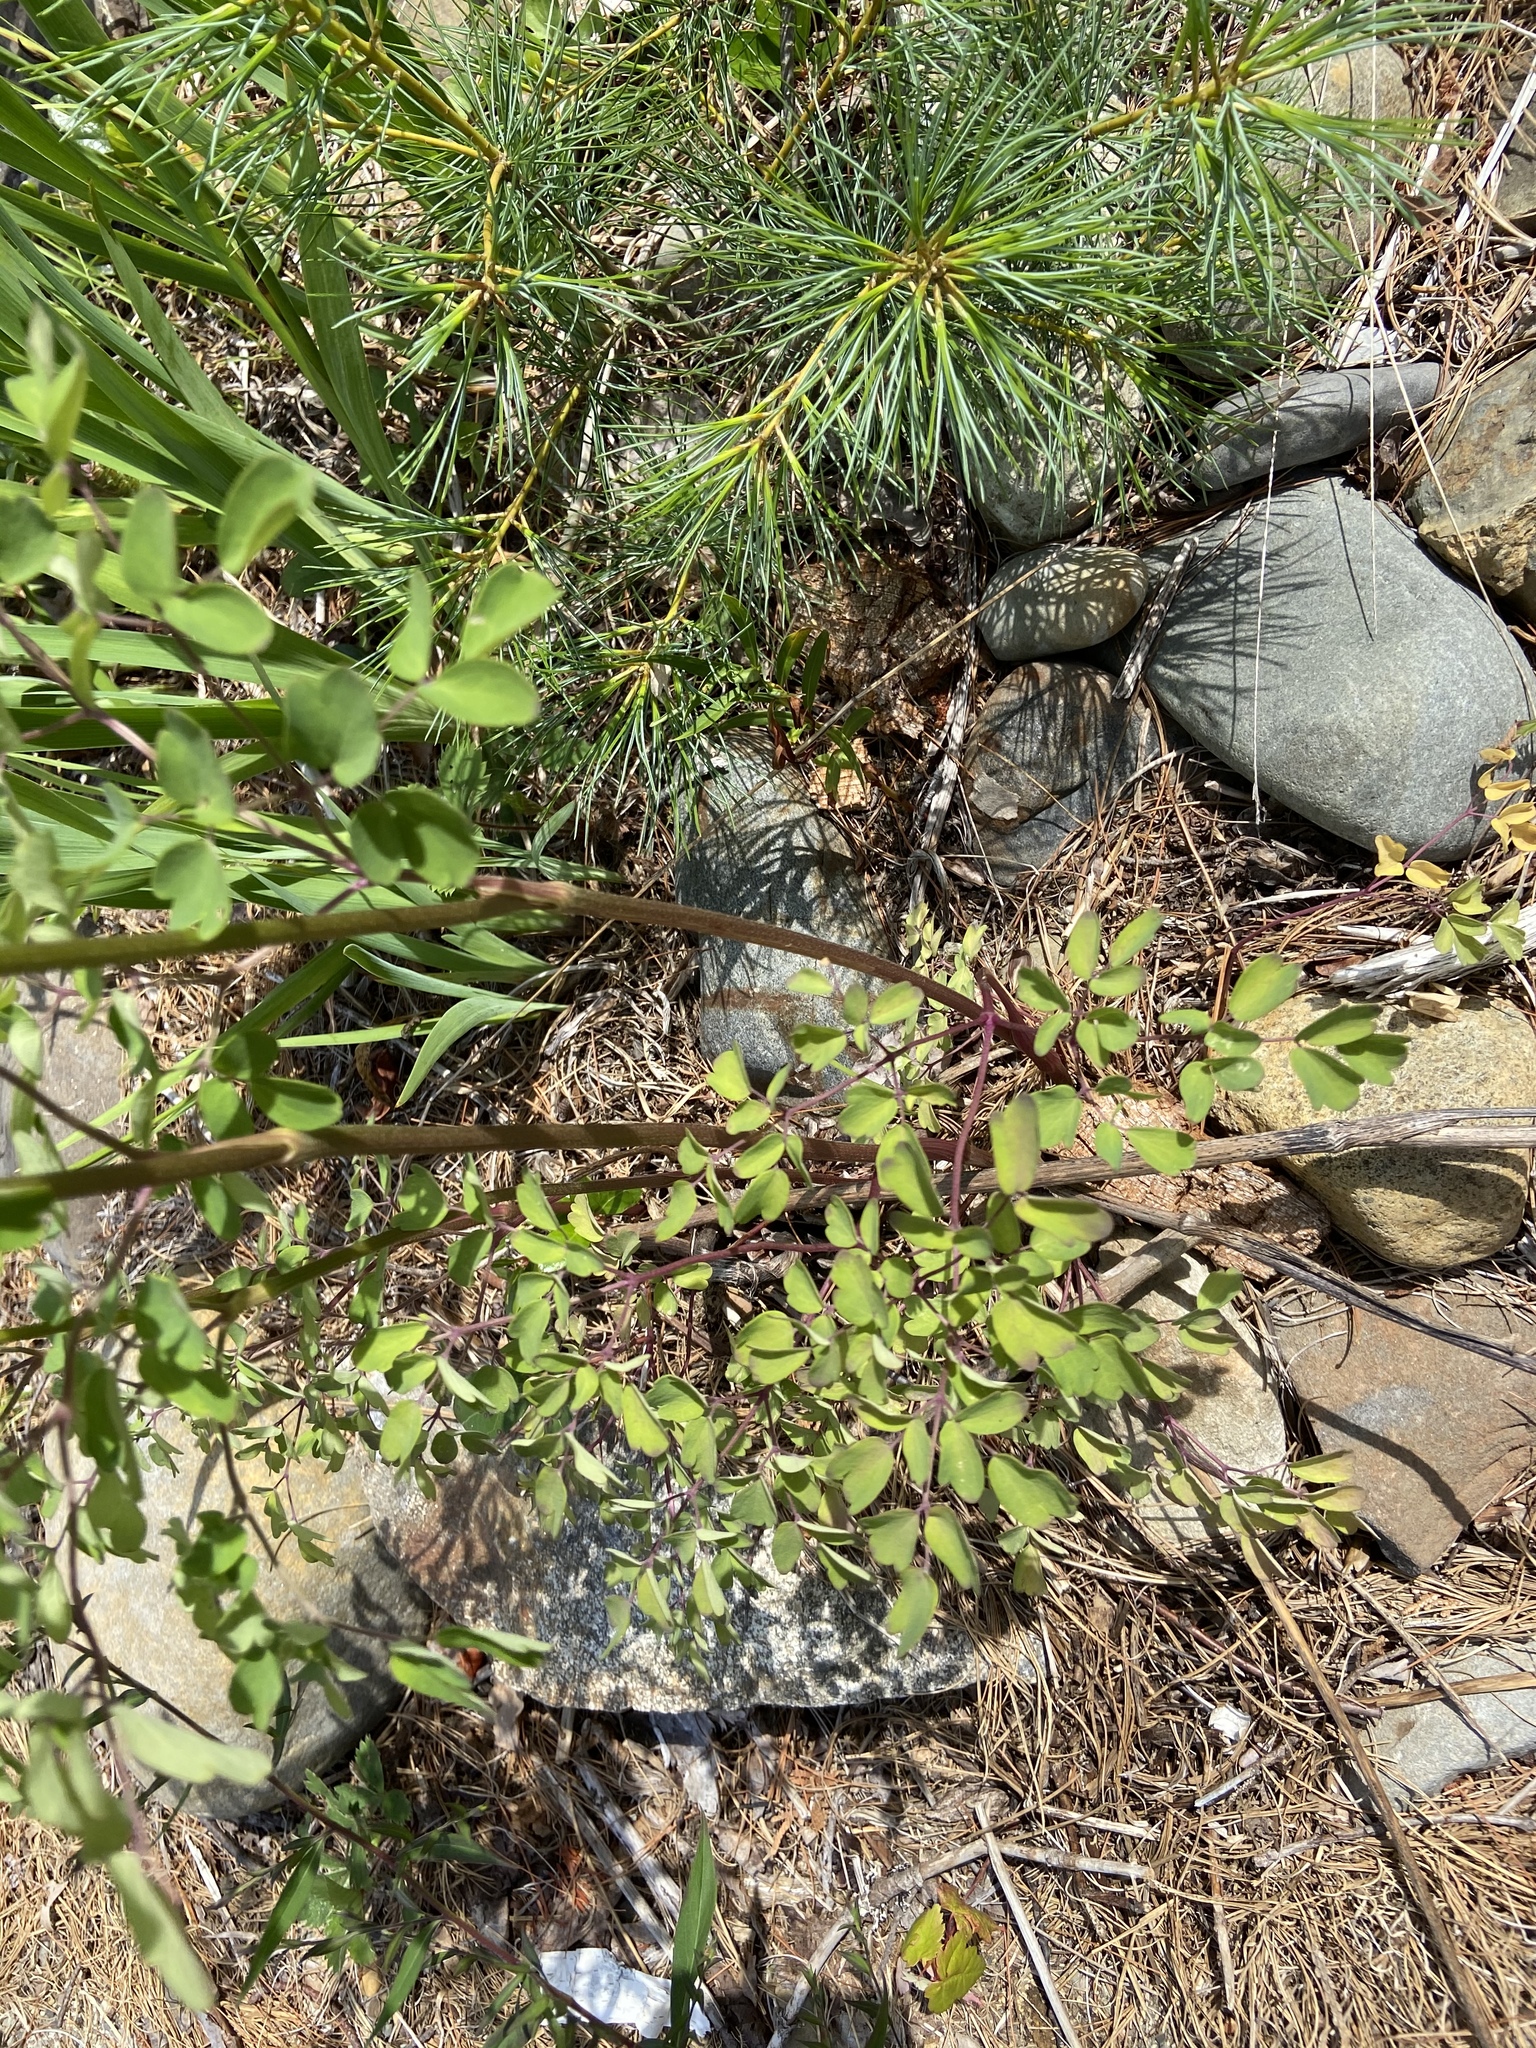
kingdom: Plantae
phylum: Tracheophyta
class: Magnoliopsida
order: Ranunculales
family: Ranunculaceae
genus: Thalictrum
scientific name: Thalictrum pubescens
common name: King-of-the-meadow
